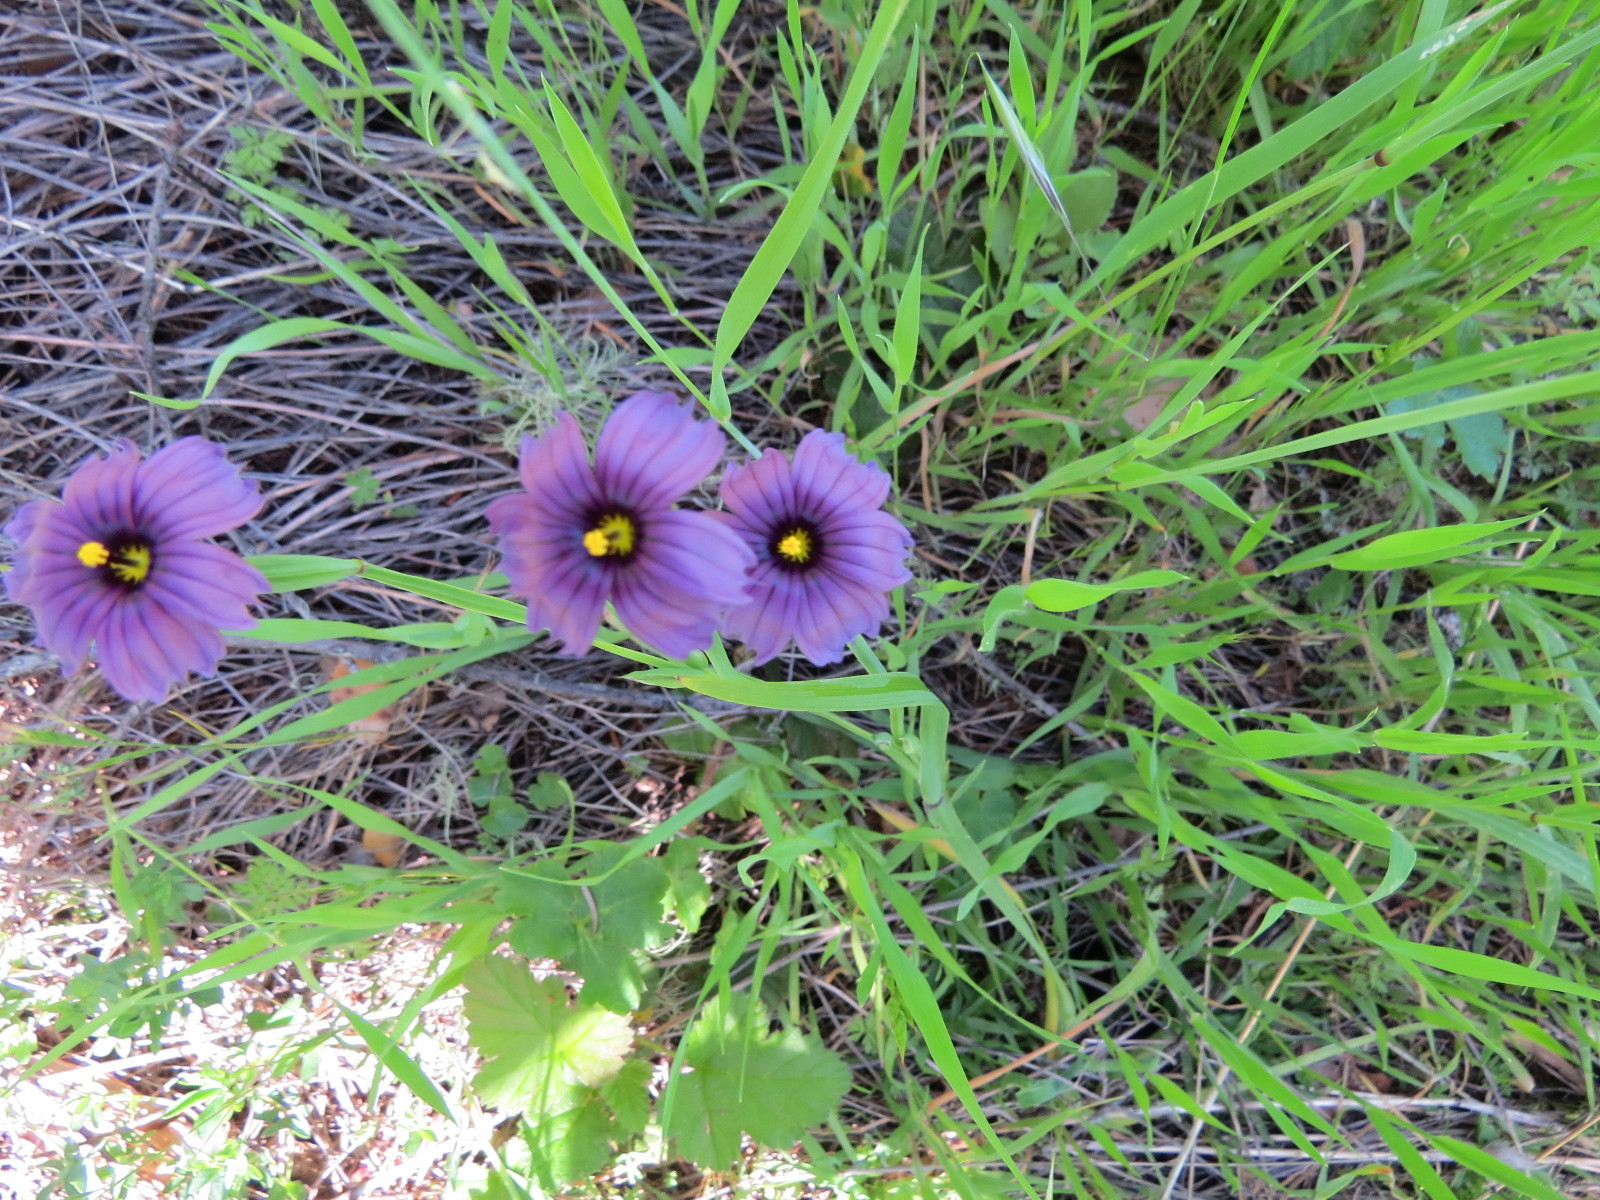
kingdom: Plantae
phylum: Tracheophyta
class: Liliopsida
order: Asparagales
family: Iridaceae
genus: Sisyrinchium
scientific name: Sisyrinchium bellum
